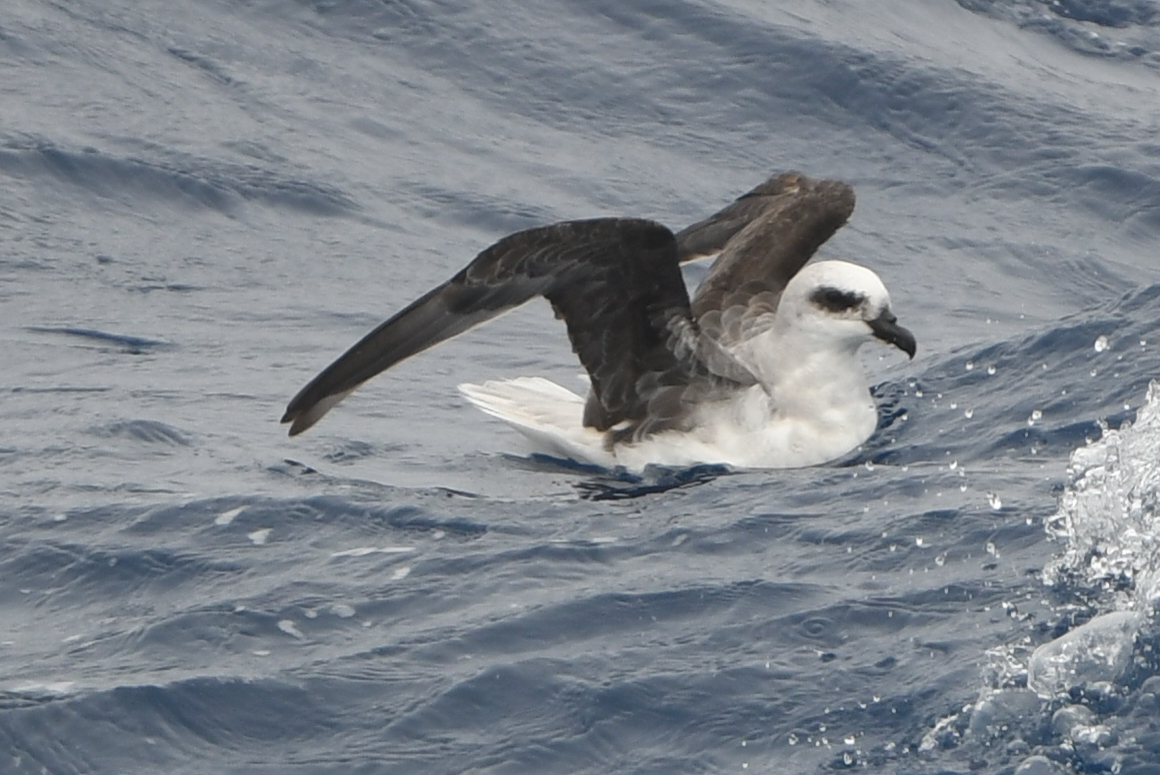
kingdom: Animalia
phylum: Chordata
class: Aves
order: Procellariiformes
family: Procellariidae
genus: Pterodroma
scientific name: Pterodroma lessonii
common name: White-headed petrel
